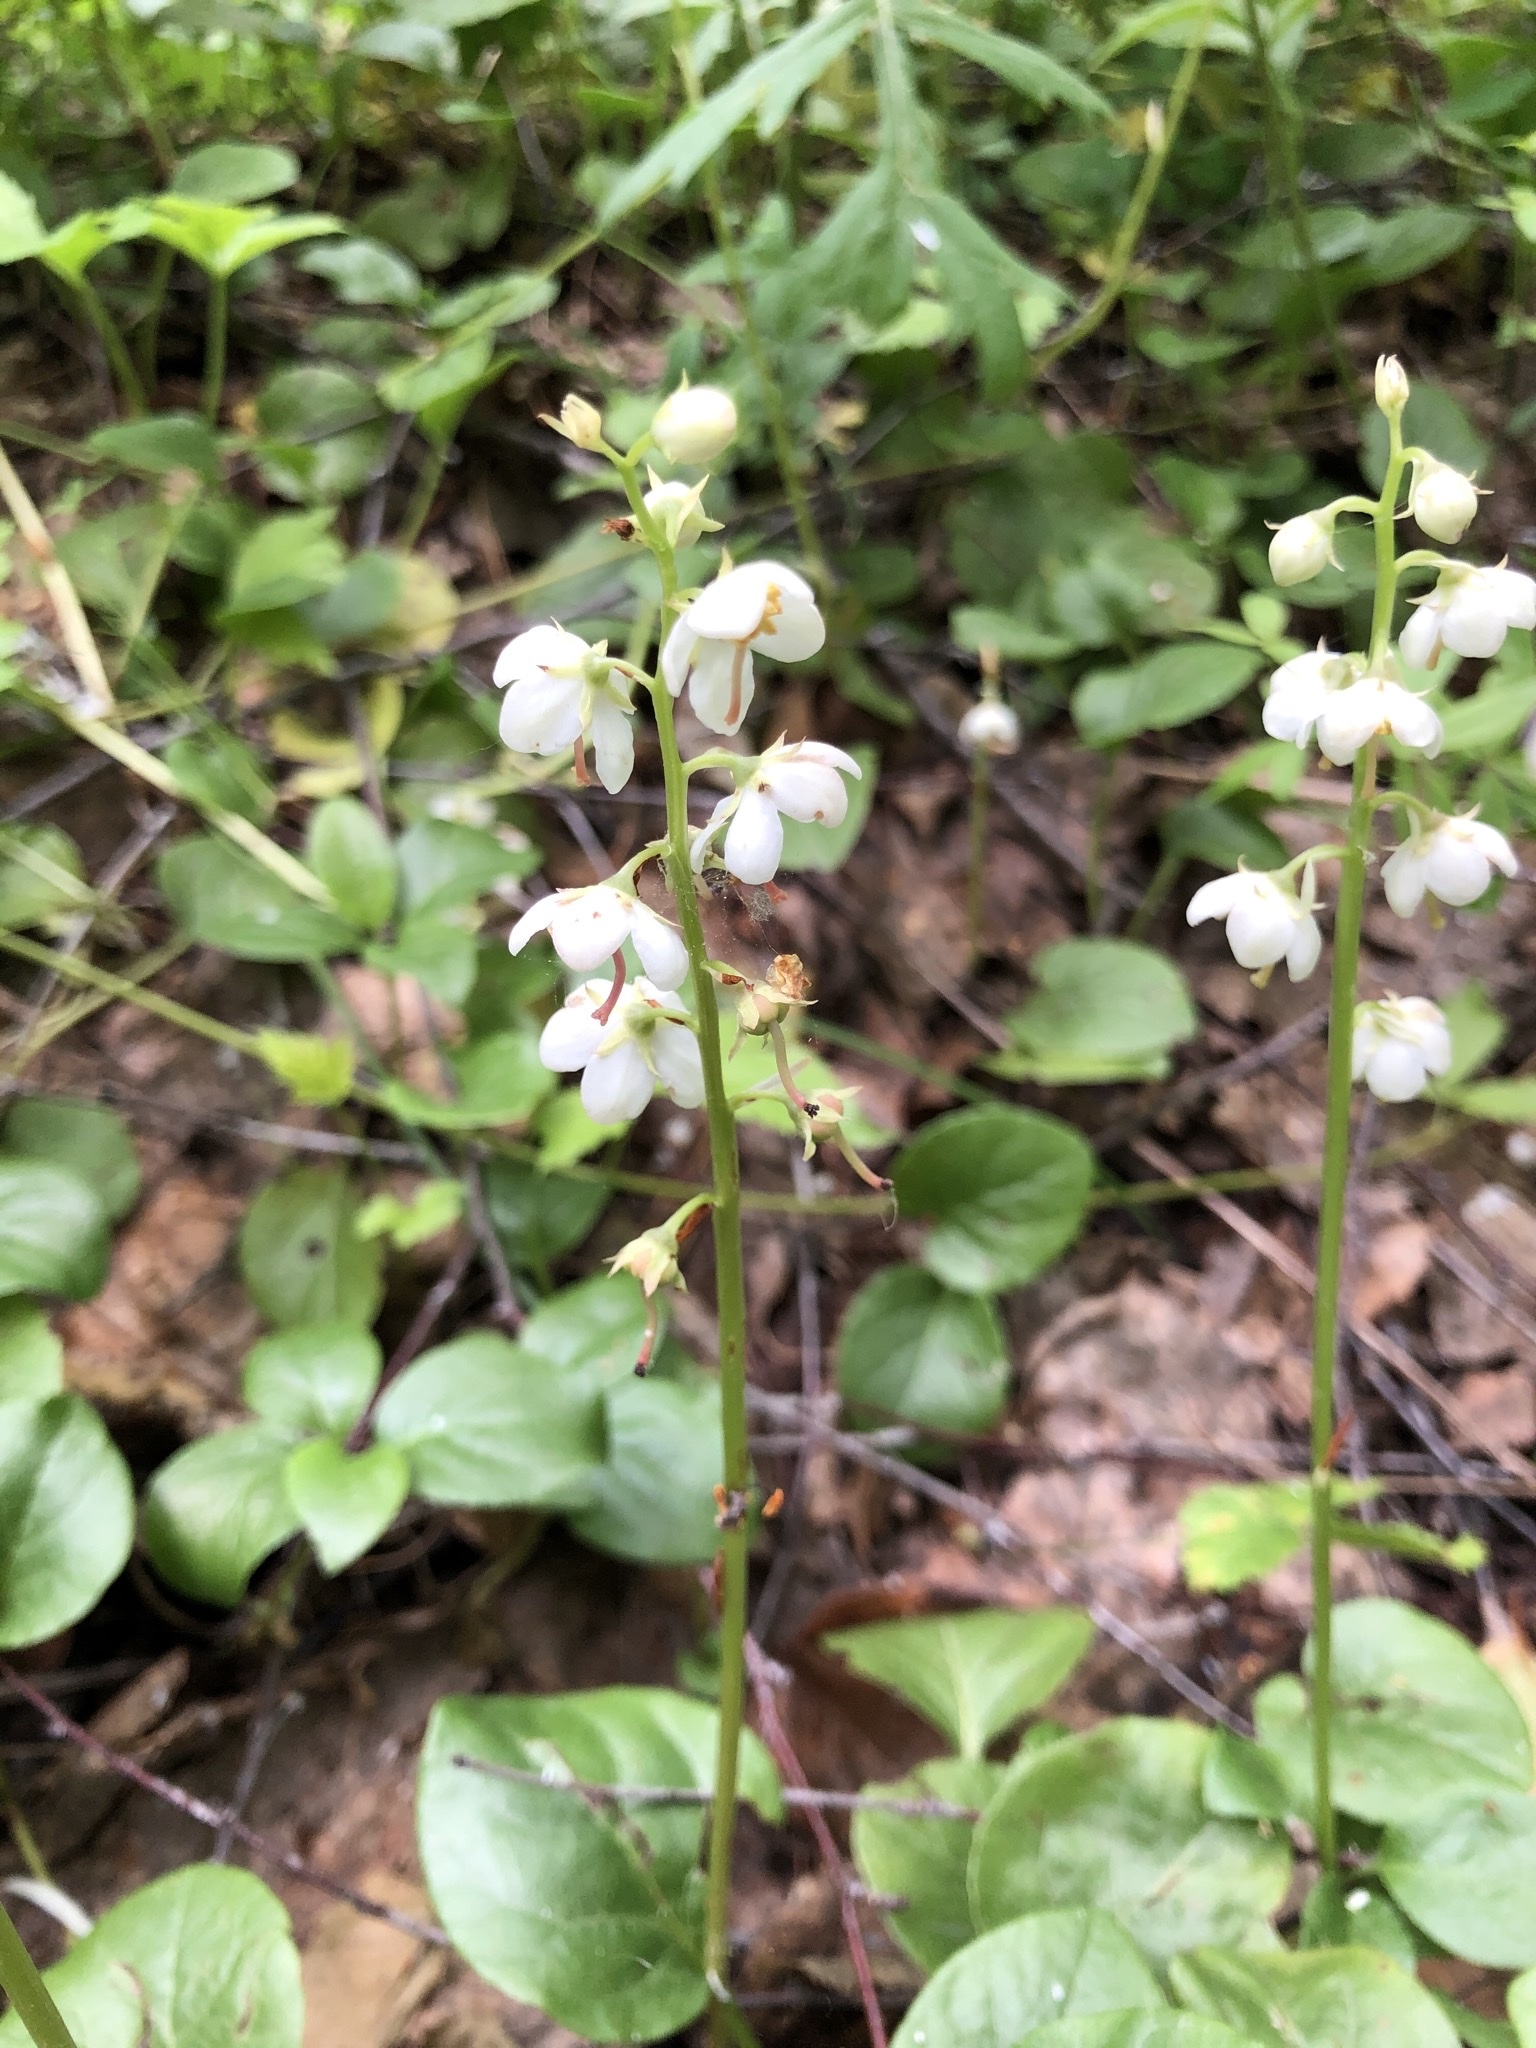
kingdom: Plantae
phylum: Tracheophyta
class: Magnoliopsida
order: Ericales
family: Ericaceae
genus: Pyrola
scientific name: Pyrola rotundifolia
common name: Round-leaved wintergreen
